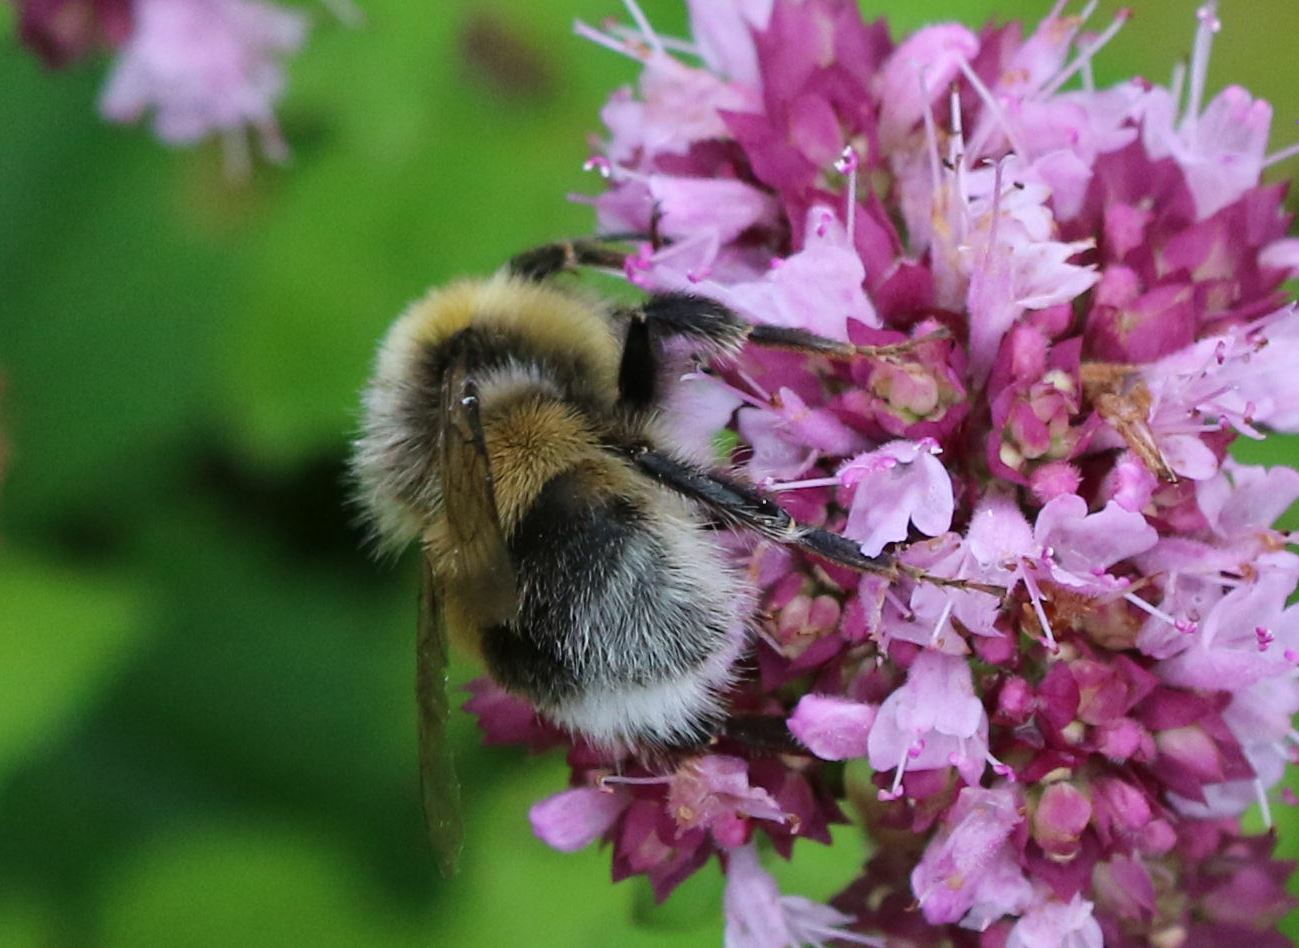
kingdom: Animalia
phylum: Arthropoda
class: Insecta
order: Hymenoptera
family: Apidae
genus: Bombus
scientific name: Bombus lucorum
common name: White-tailed bumblebee
